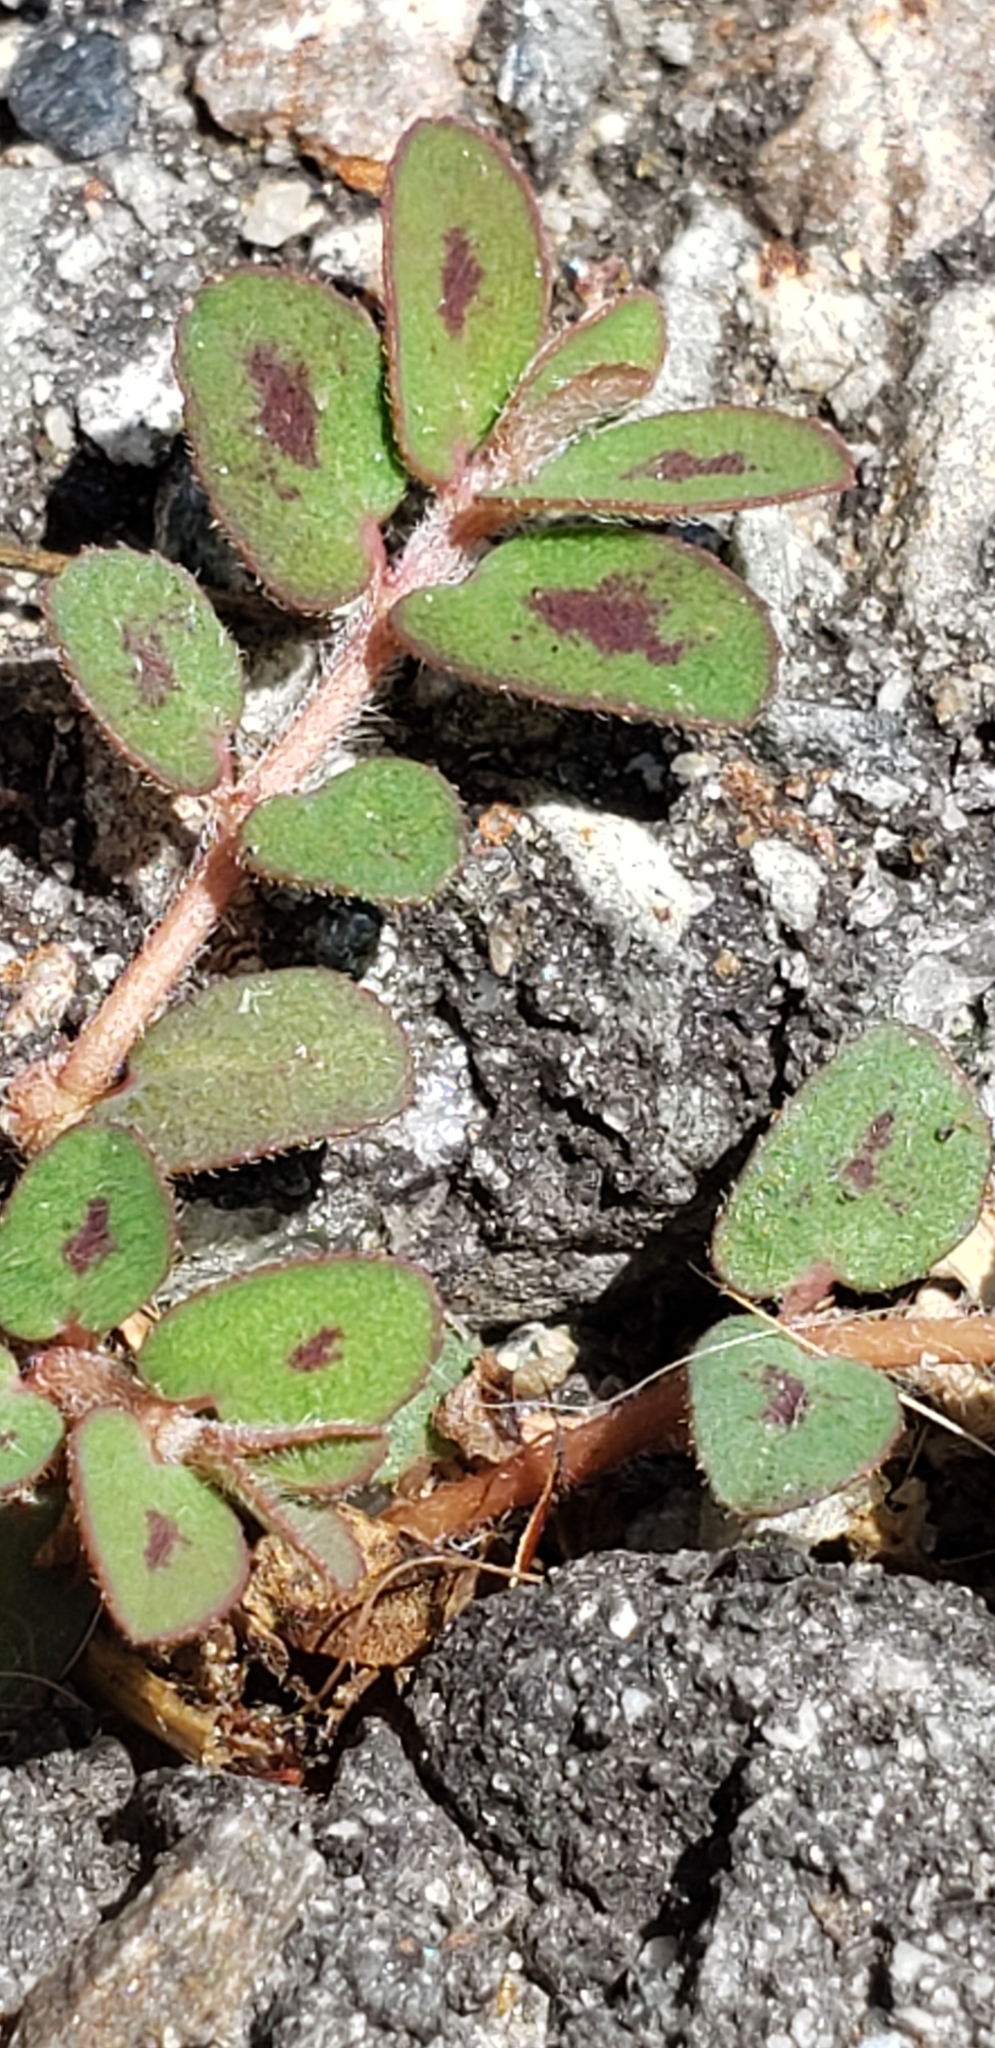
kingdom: Plantae
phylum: Tracheophyta
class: Magnoliopsida
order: Malpighiales
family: Euphorbiaceae
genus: Euphorbia
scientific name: Euphorbia maculata
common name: Spotted spurge
